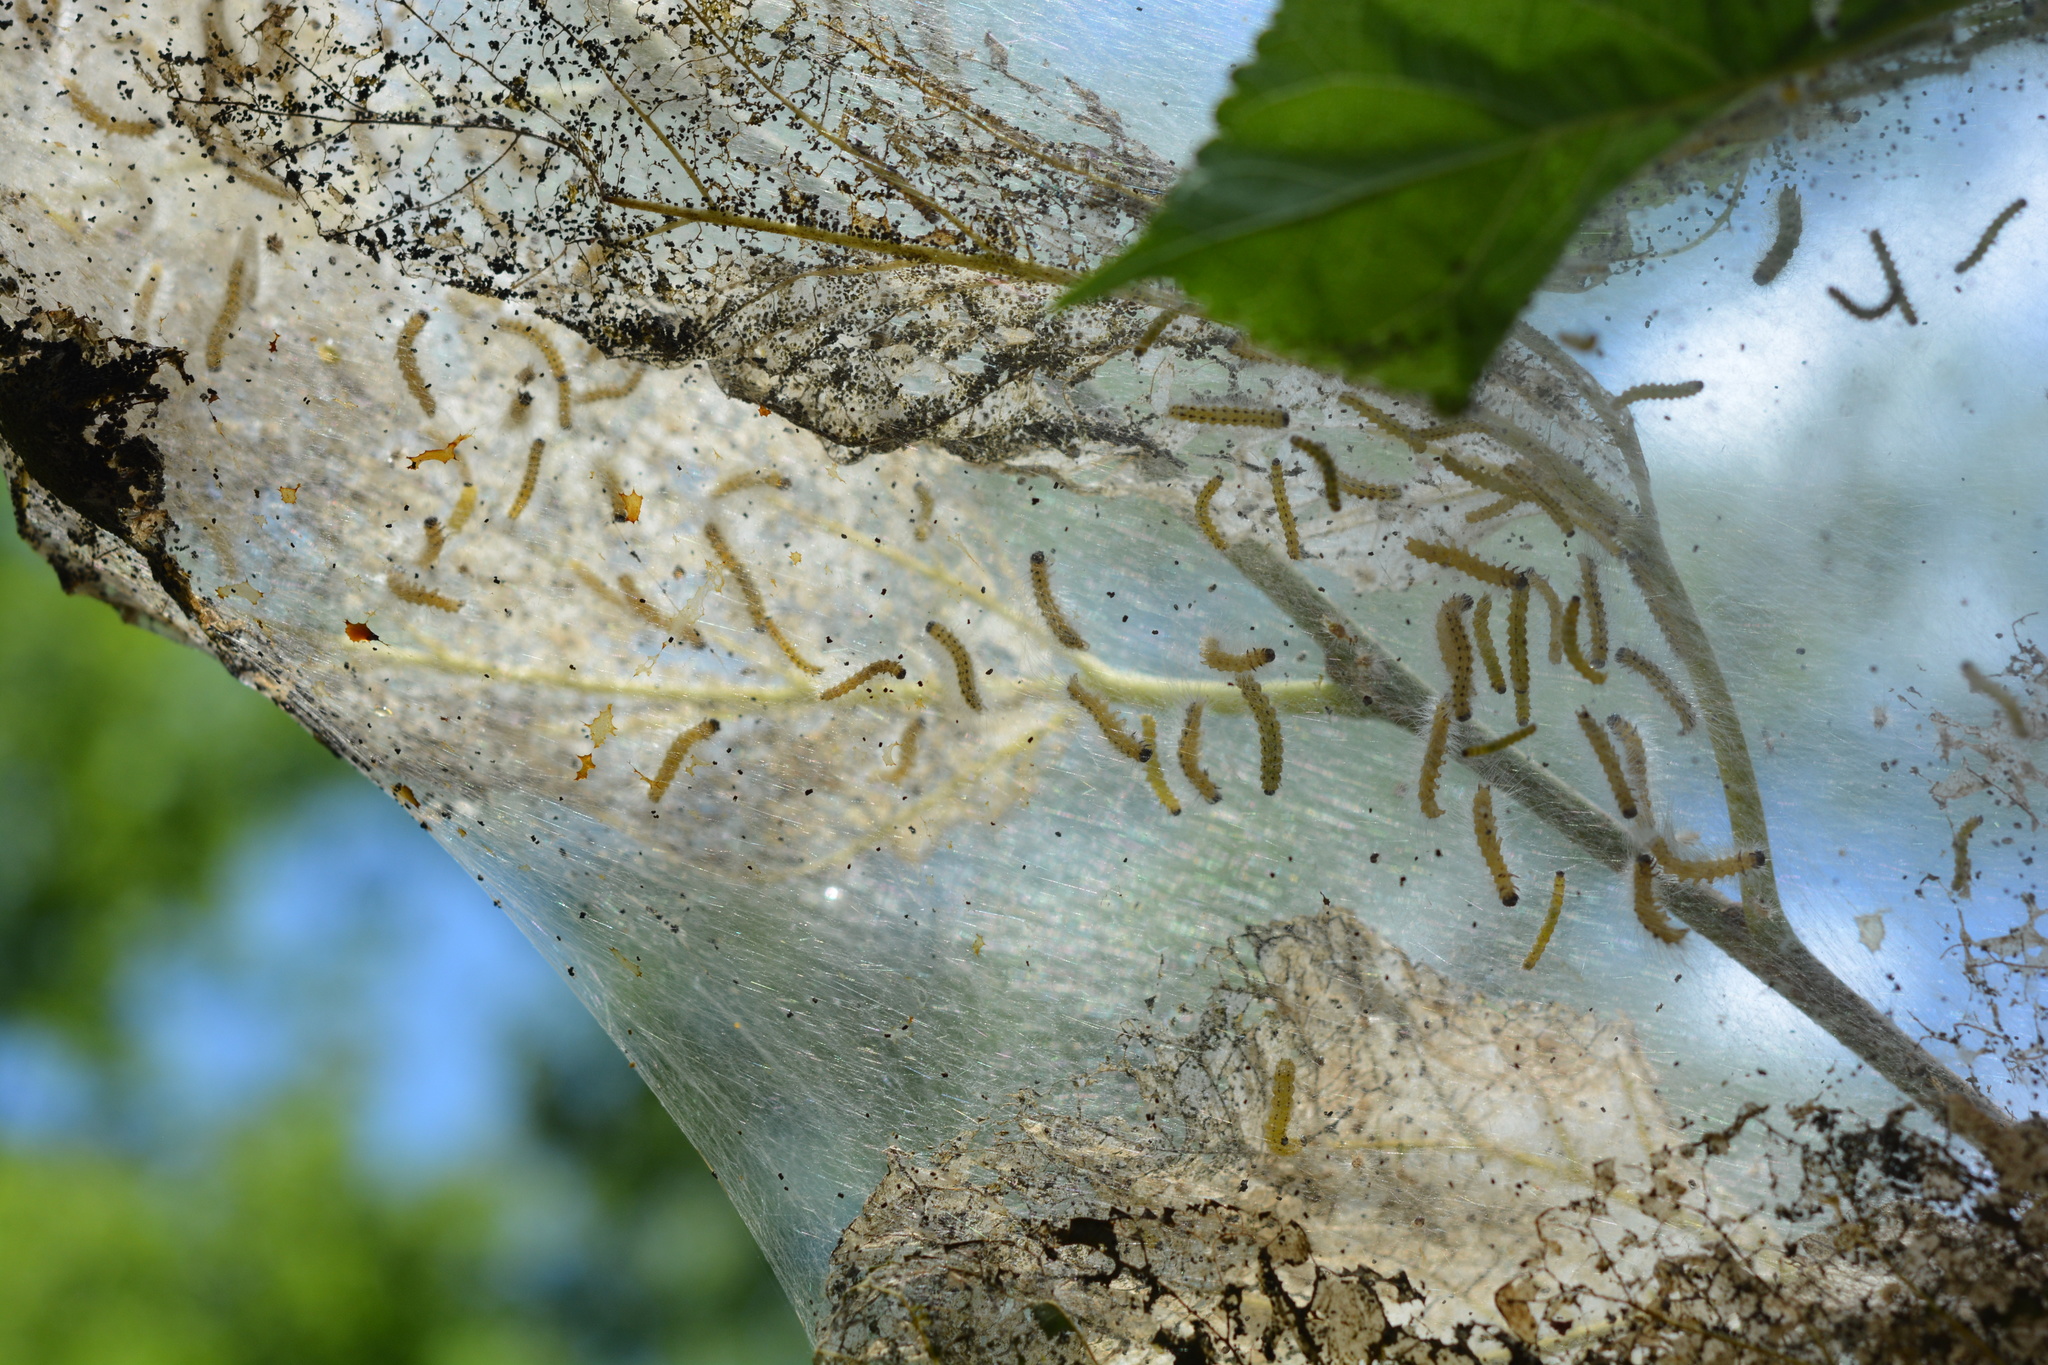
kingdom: Animalia
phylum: Arthropoda
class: Insecta
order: Lepidoptera
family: Erebidae
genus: Hyphantria
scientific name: Hyphantria cunea
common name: American white moth
